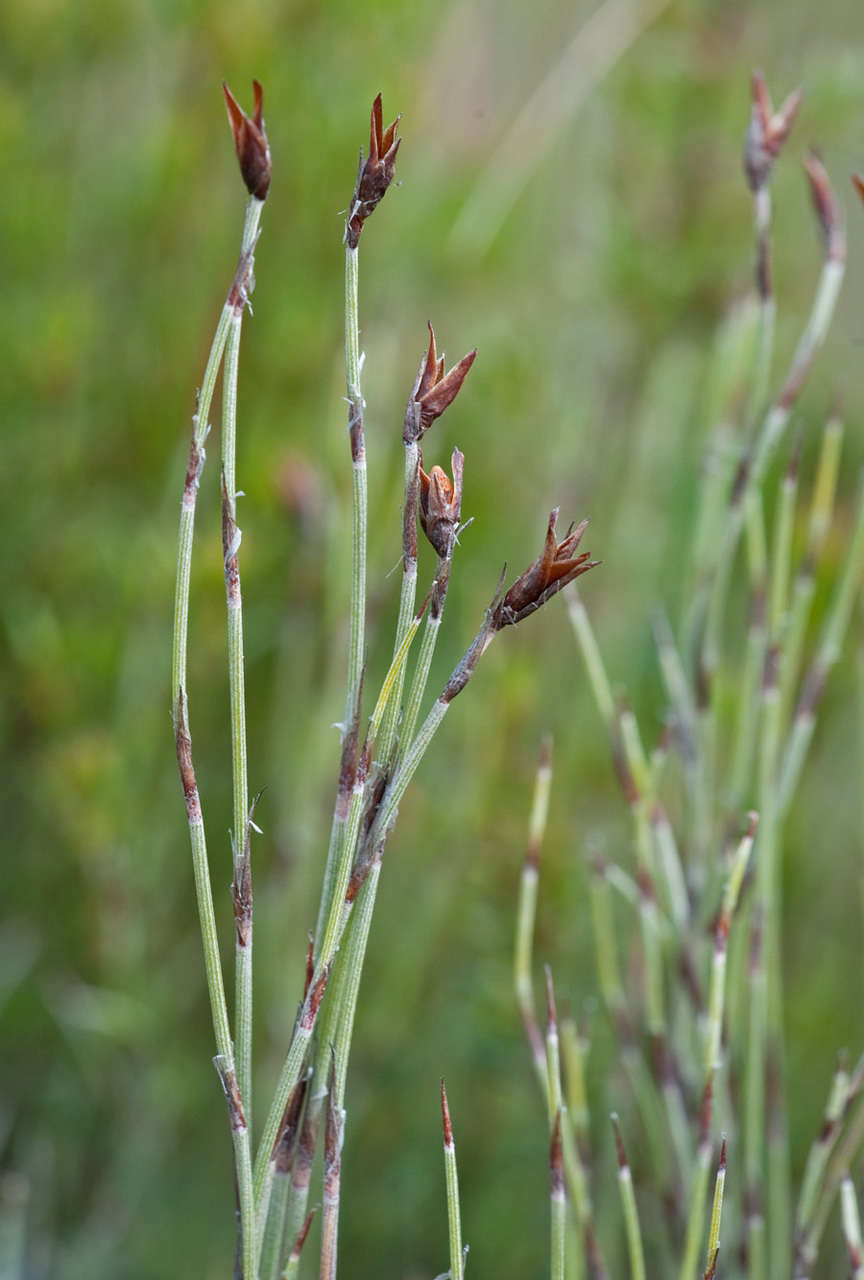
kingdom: Plantae
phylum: Tracheophyta
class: Liliopsida
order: Poales
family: Restionaceae
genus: Leptocarpus
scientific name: Leptocarpus tenax
